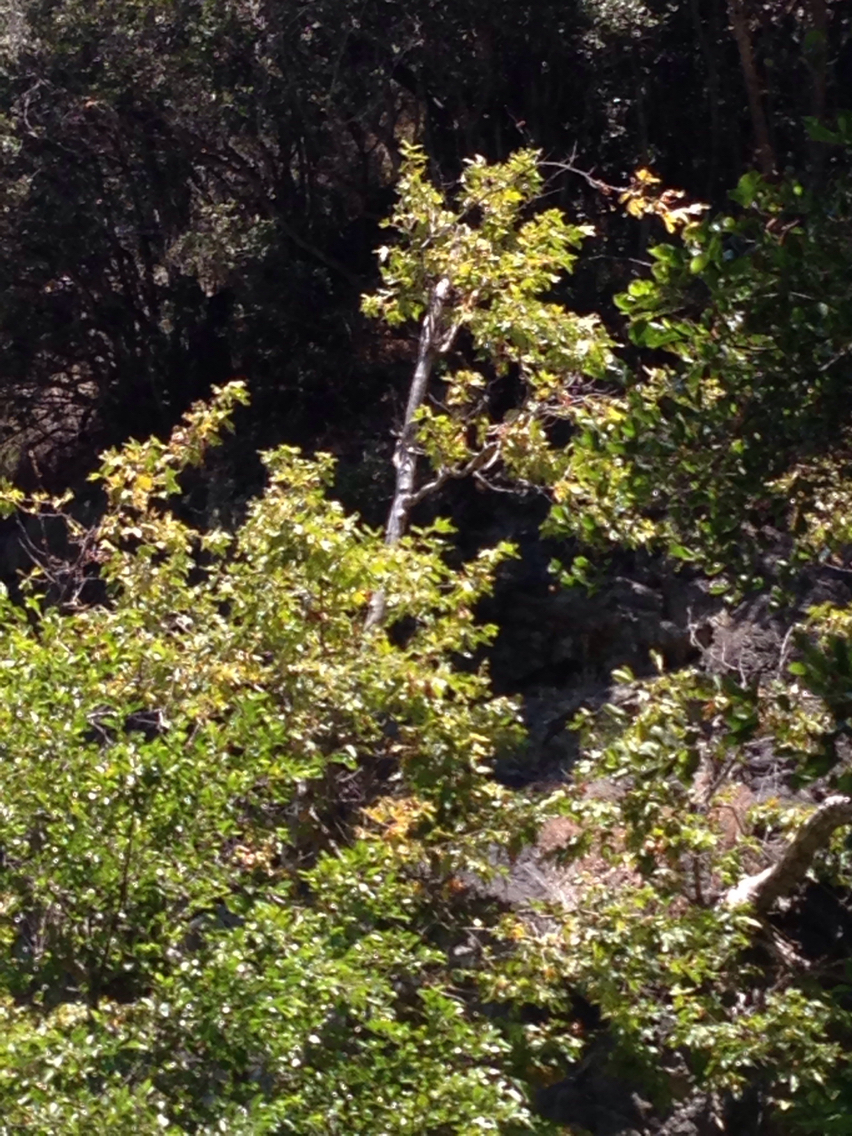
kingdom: Plantae
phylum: Tracheophyta
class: Magnoliopsida
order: Proteales
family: Platanaceae
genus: Platanus
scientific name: Platanus racemosa
